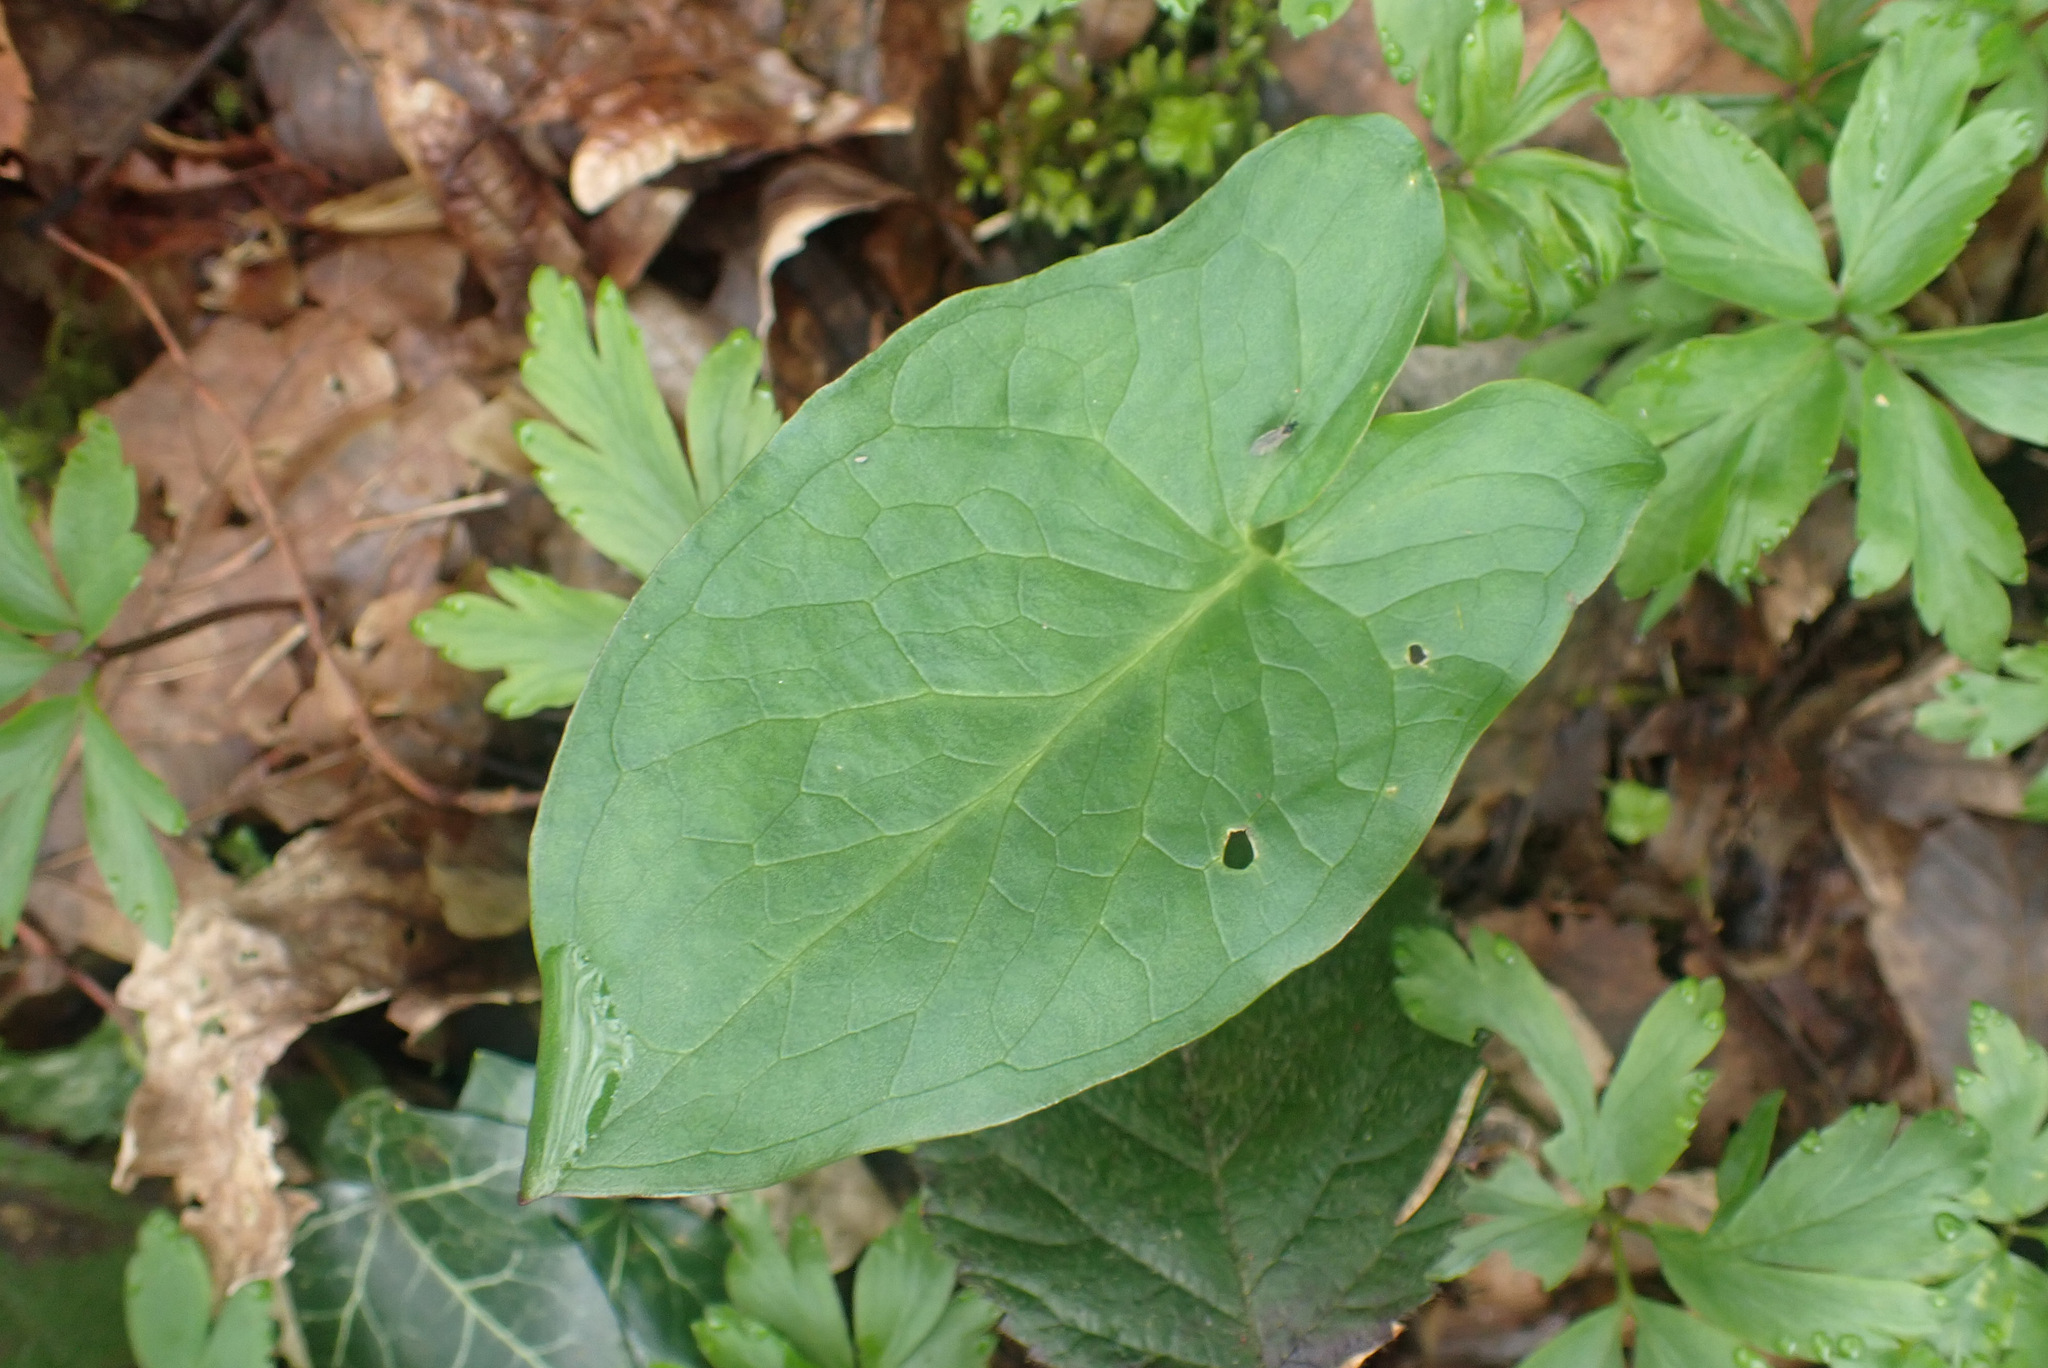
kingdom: Plantae
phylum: Tracheophyta
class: Liliopsida
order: Alismatales
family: Araceae
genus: Arum
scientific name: Arum maculatum
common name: Lords-and-ladies
